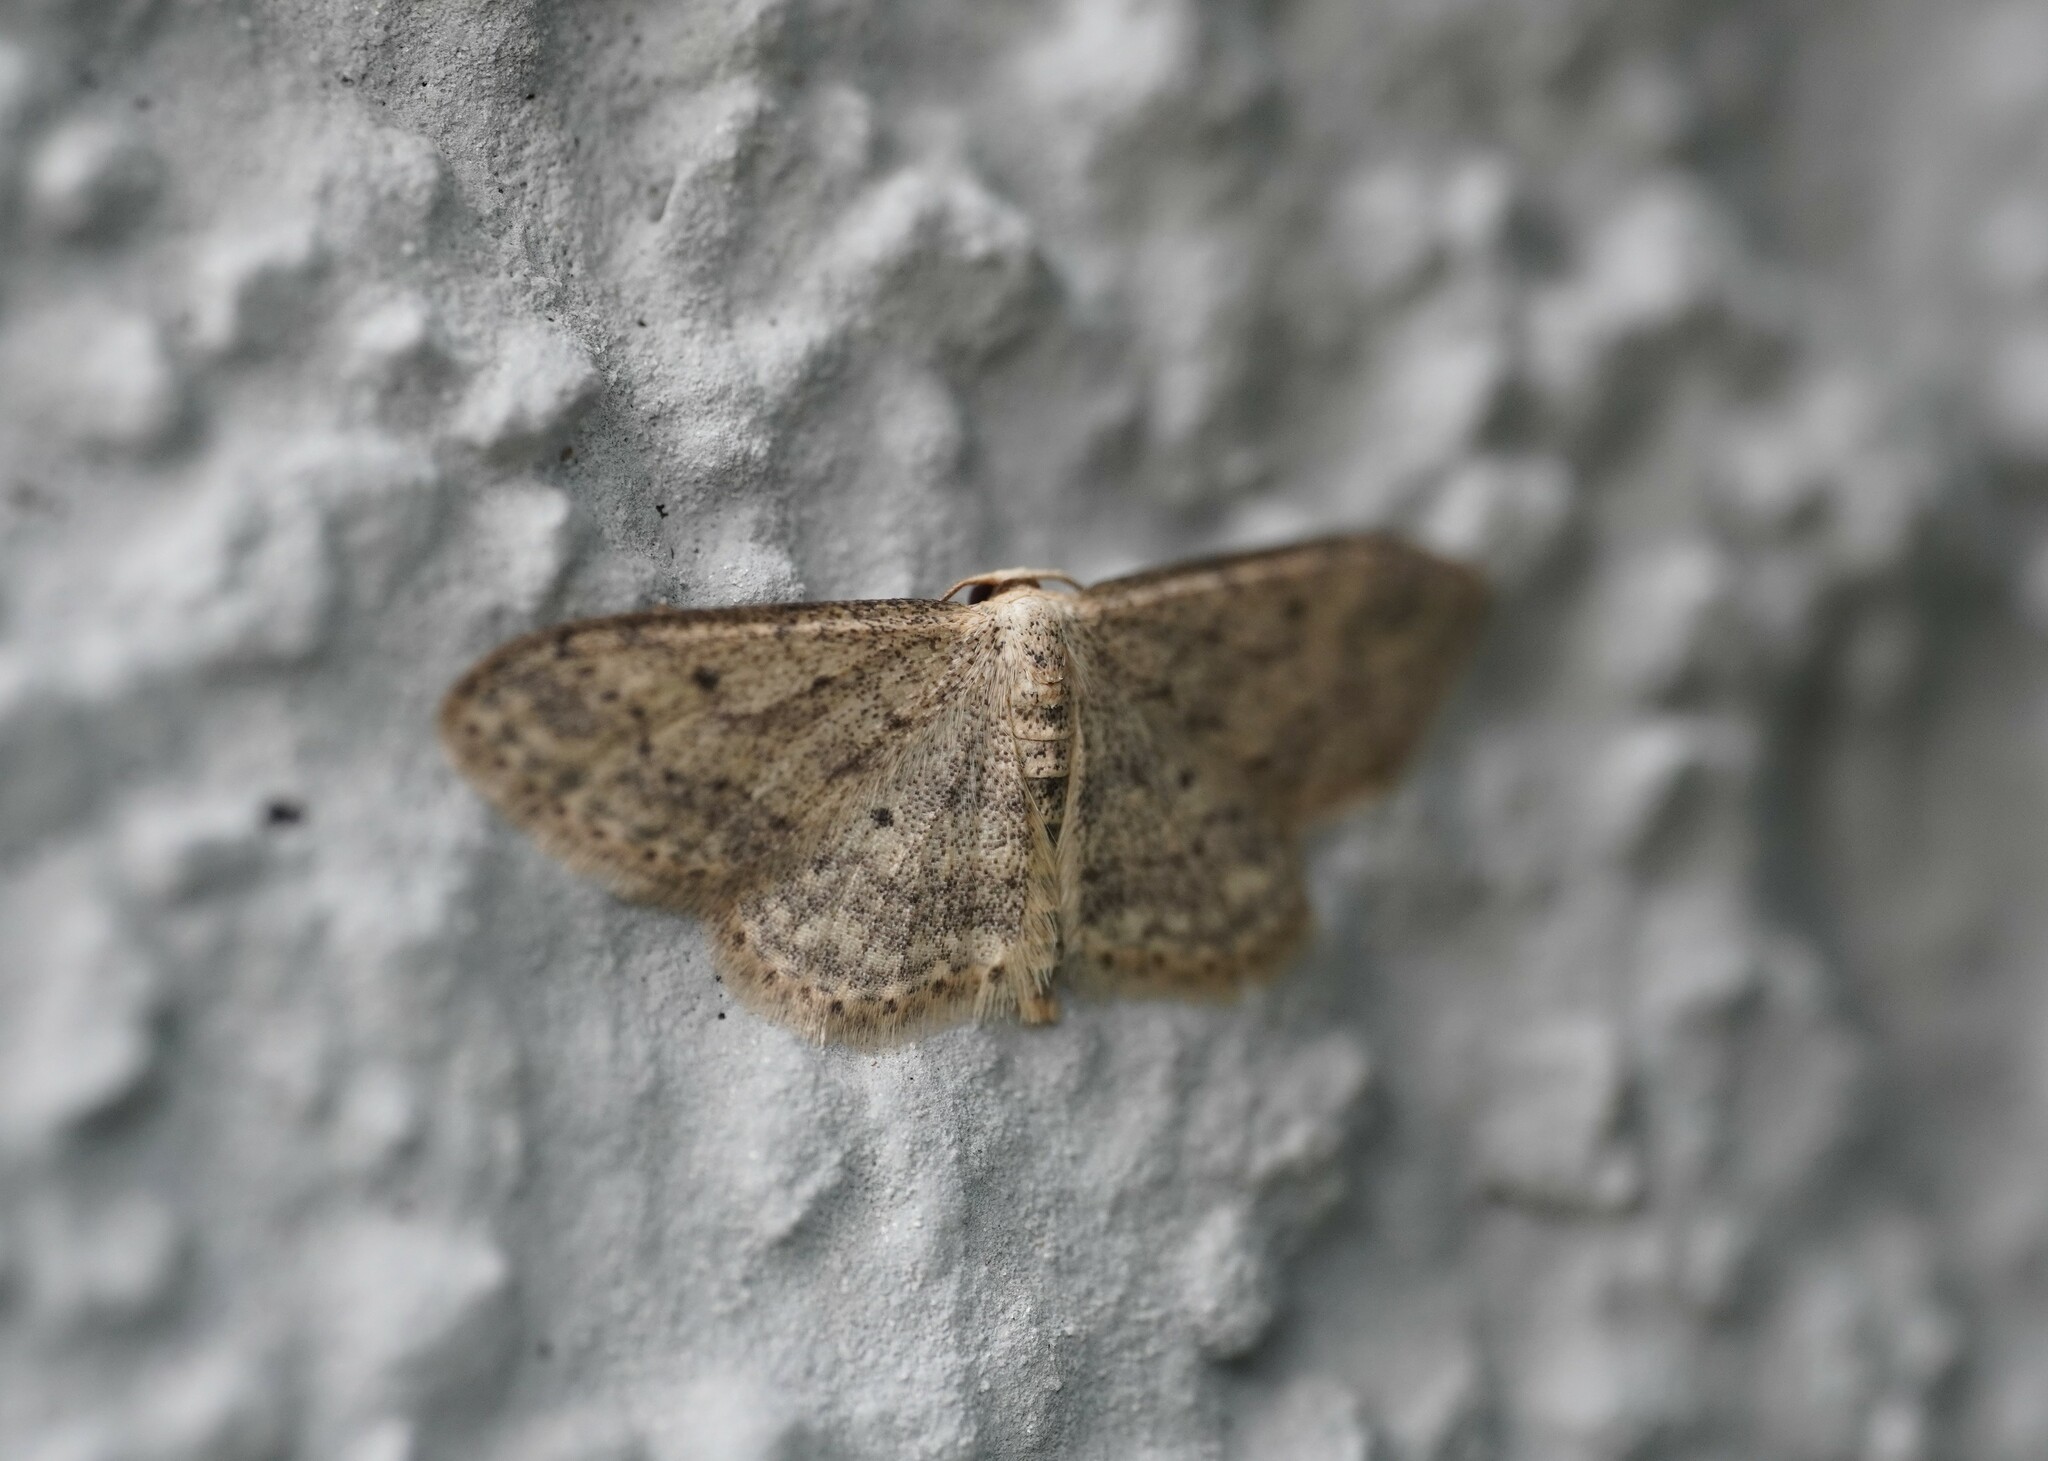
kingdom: Animalia
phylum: Arthropoda
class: Insecta
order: Lepidoptera
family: Geometridae
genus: Idaea
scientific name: Idaea seriata
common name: Small dusty wave
